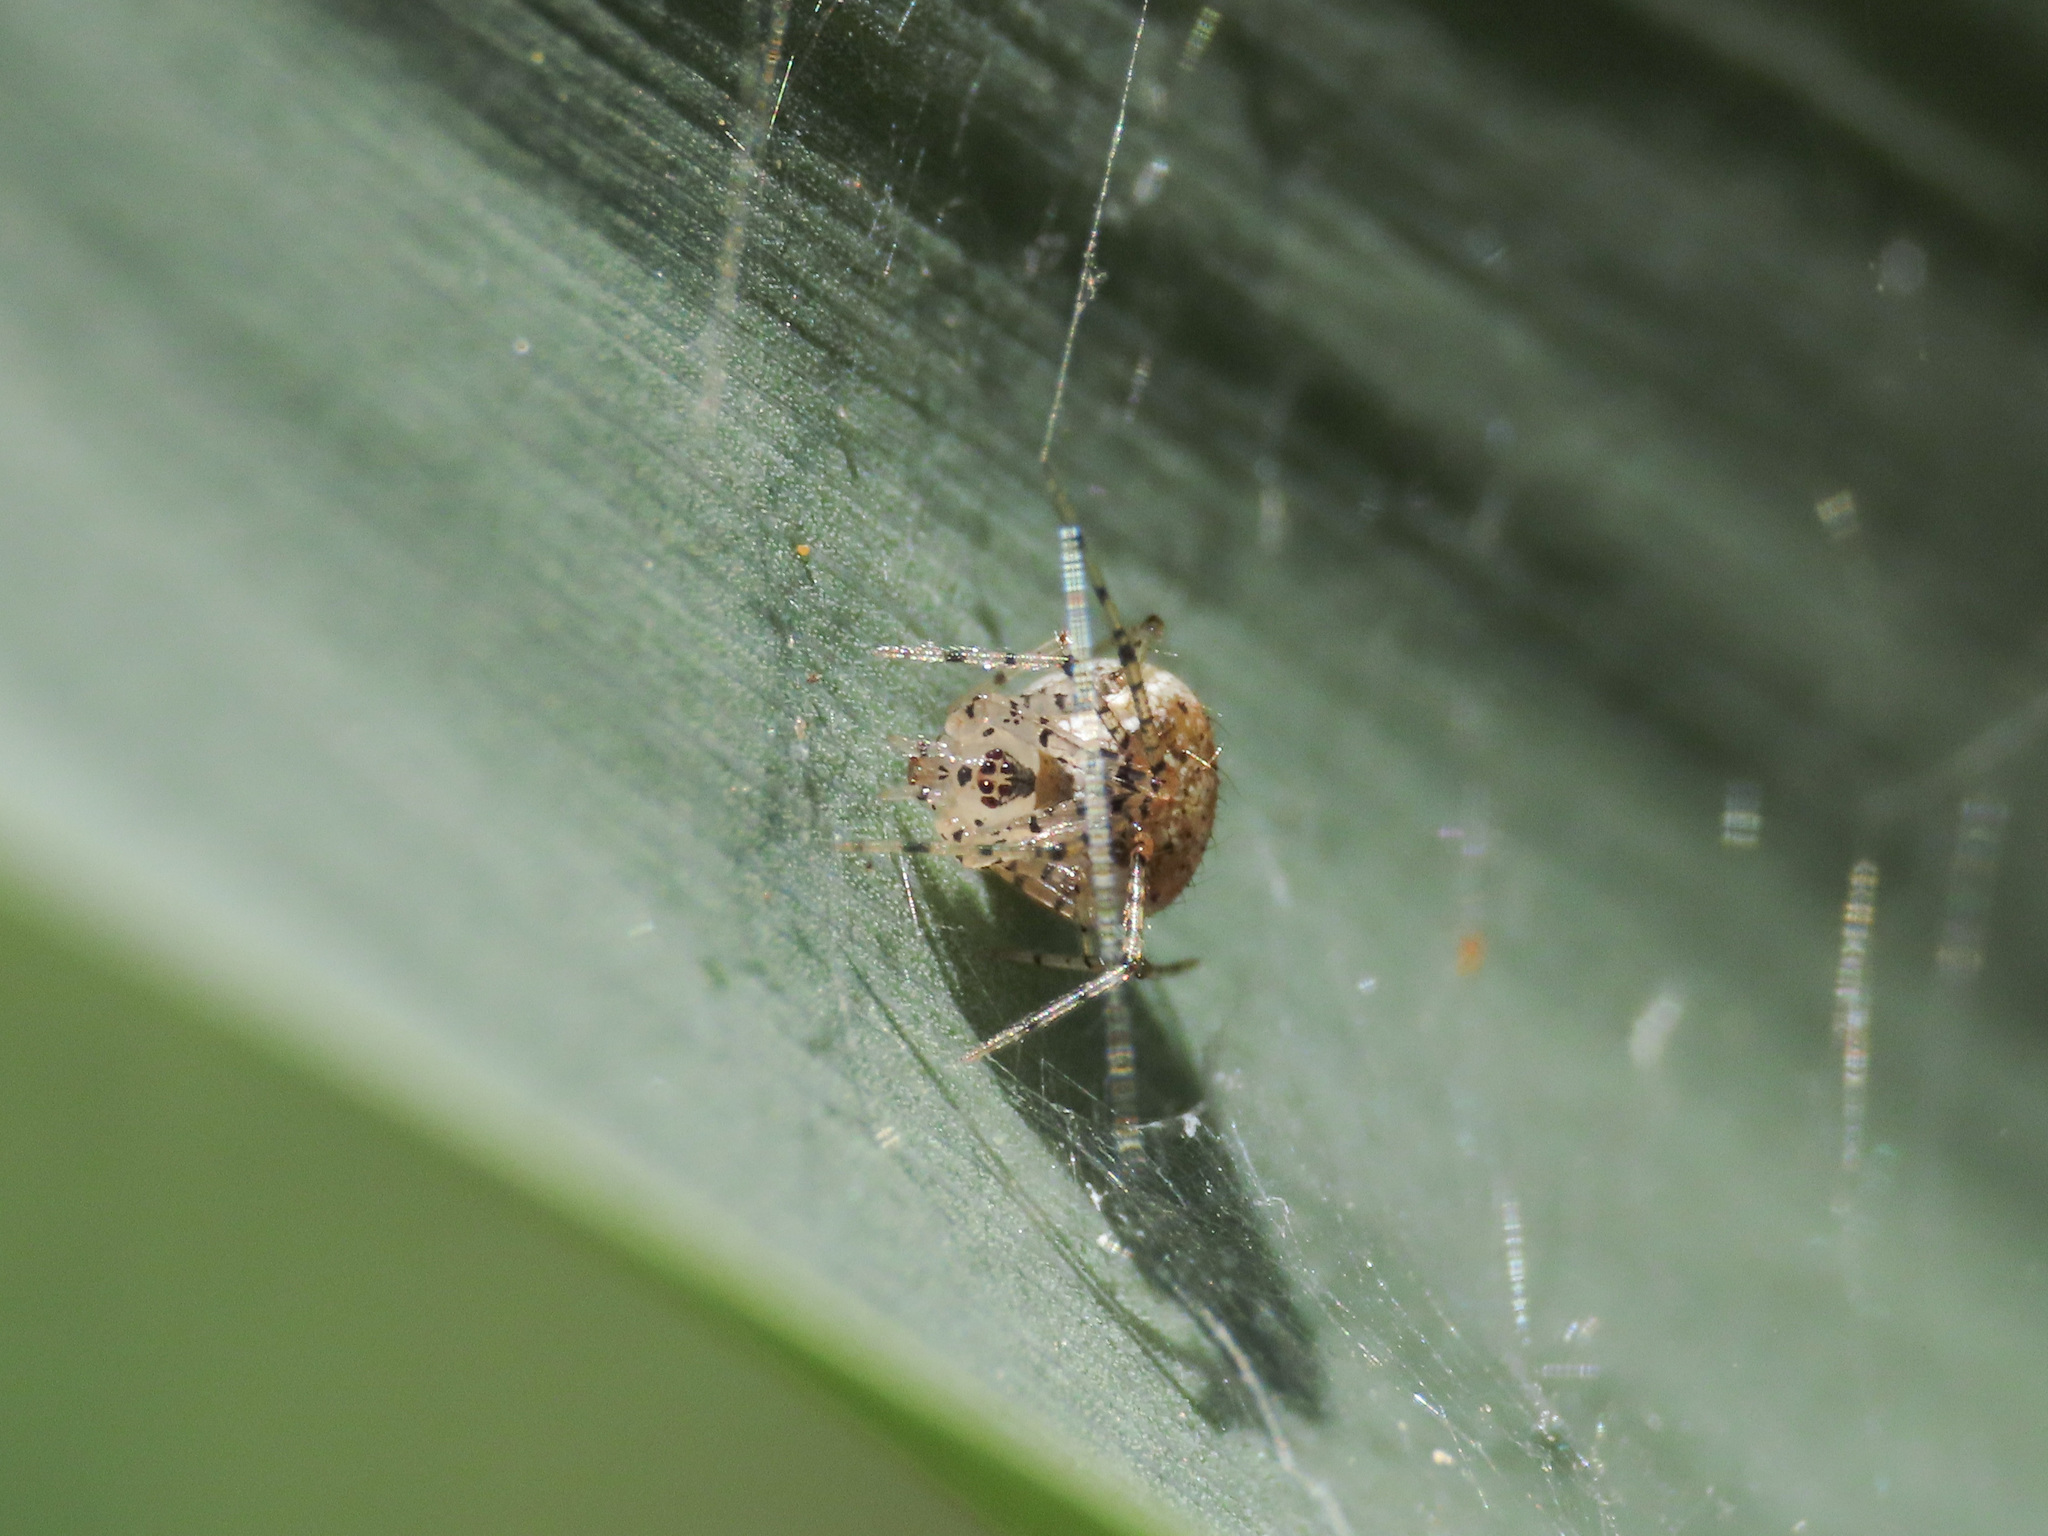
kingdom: Animalia
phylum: Arthropoda
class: Arachnida
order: Araneae
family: Theridiidae
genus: Platnickina
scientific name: Platnickina tincta
